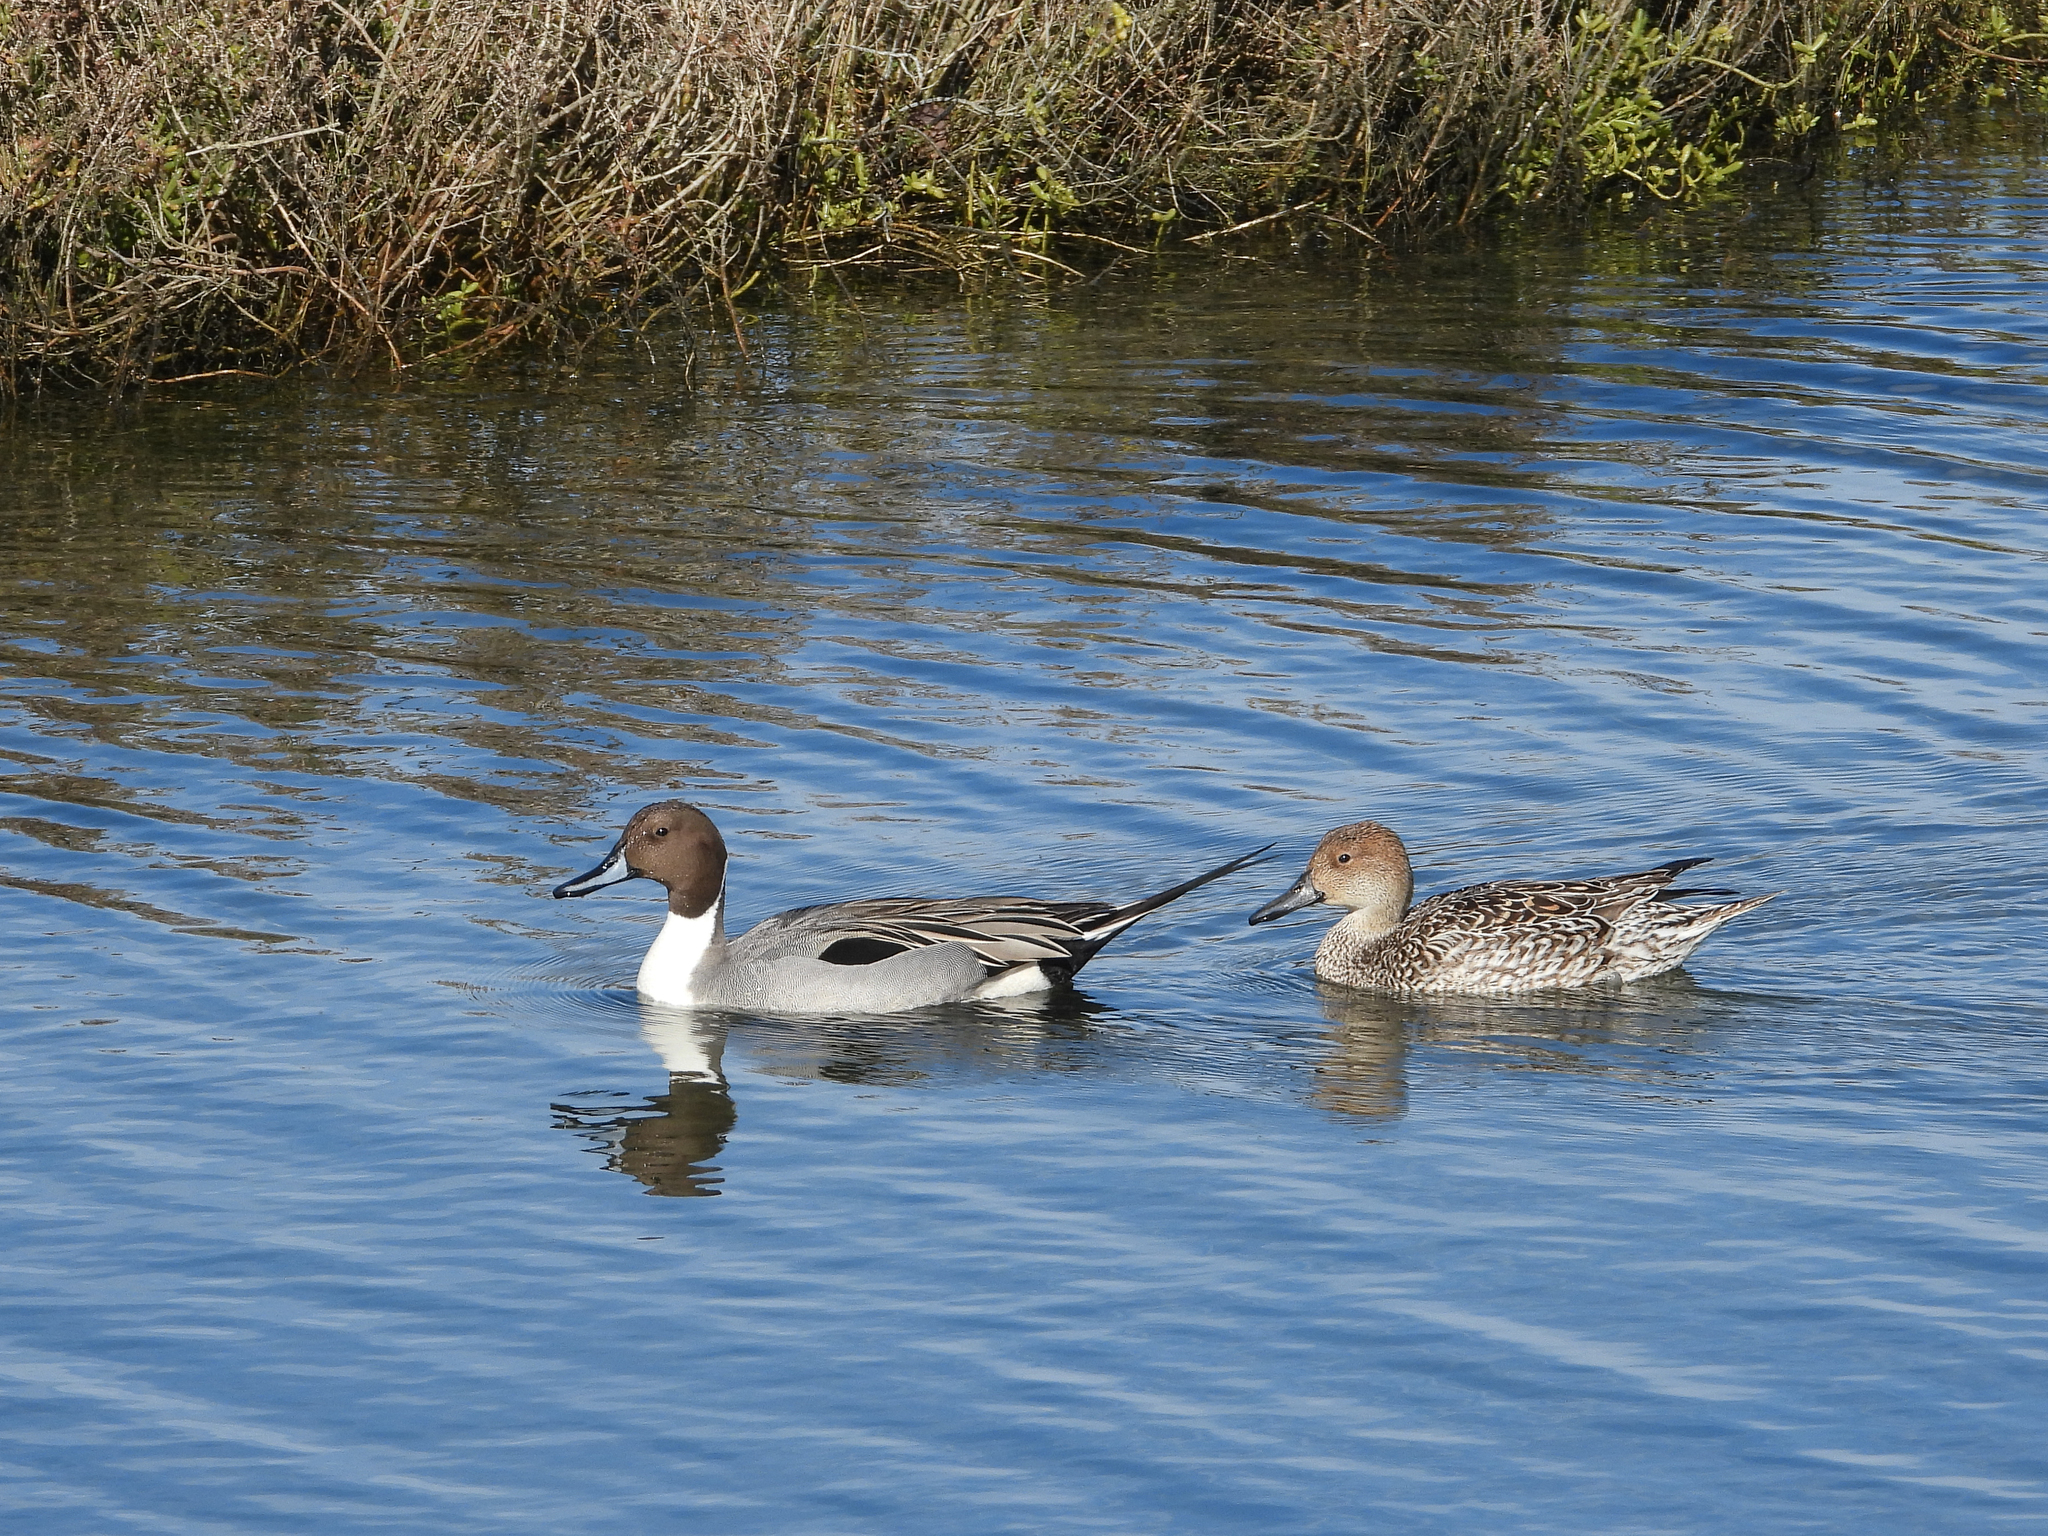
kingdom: Animalia
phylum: Chordata
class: Aves
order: Anseriformes
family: Anatidae
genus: Anas
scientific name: Anas acuta
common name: Northern pintail
